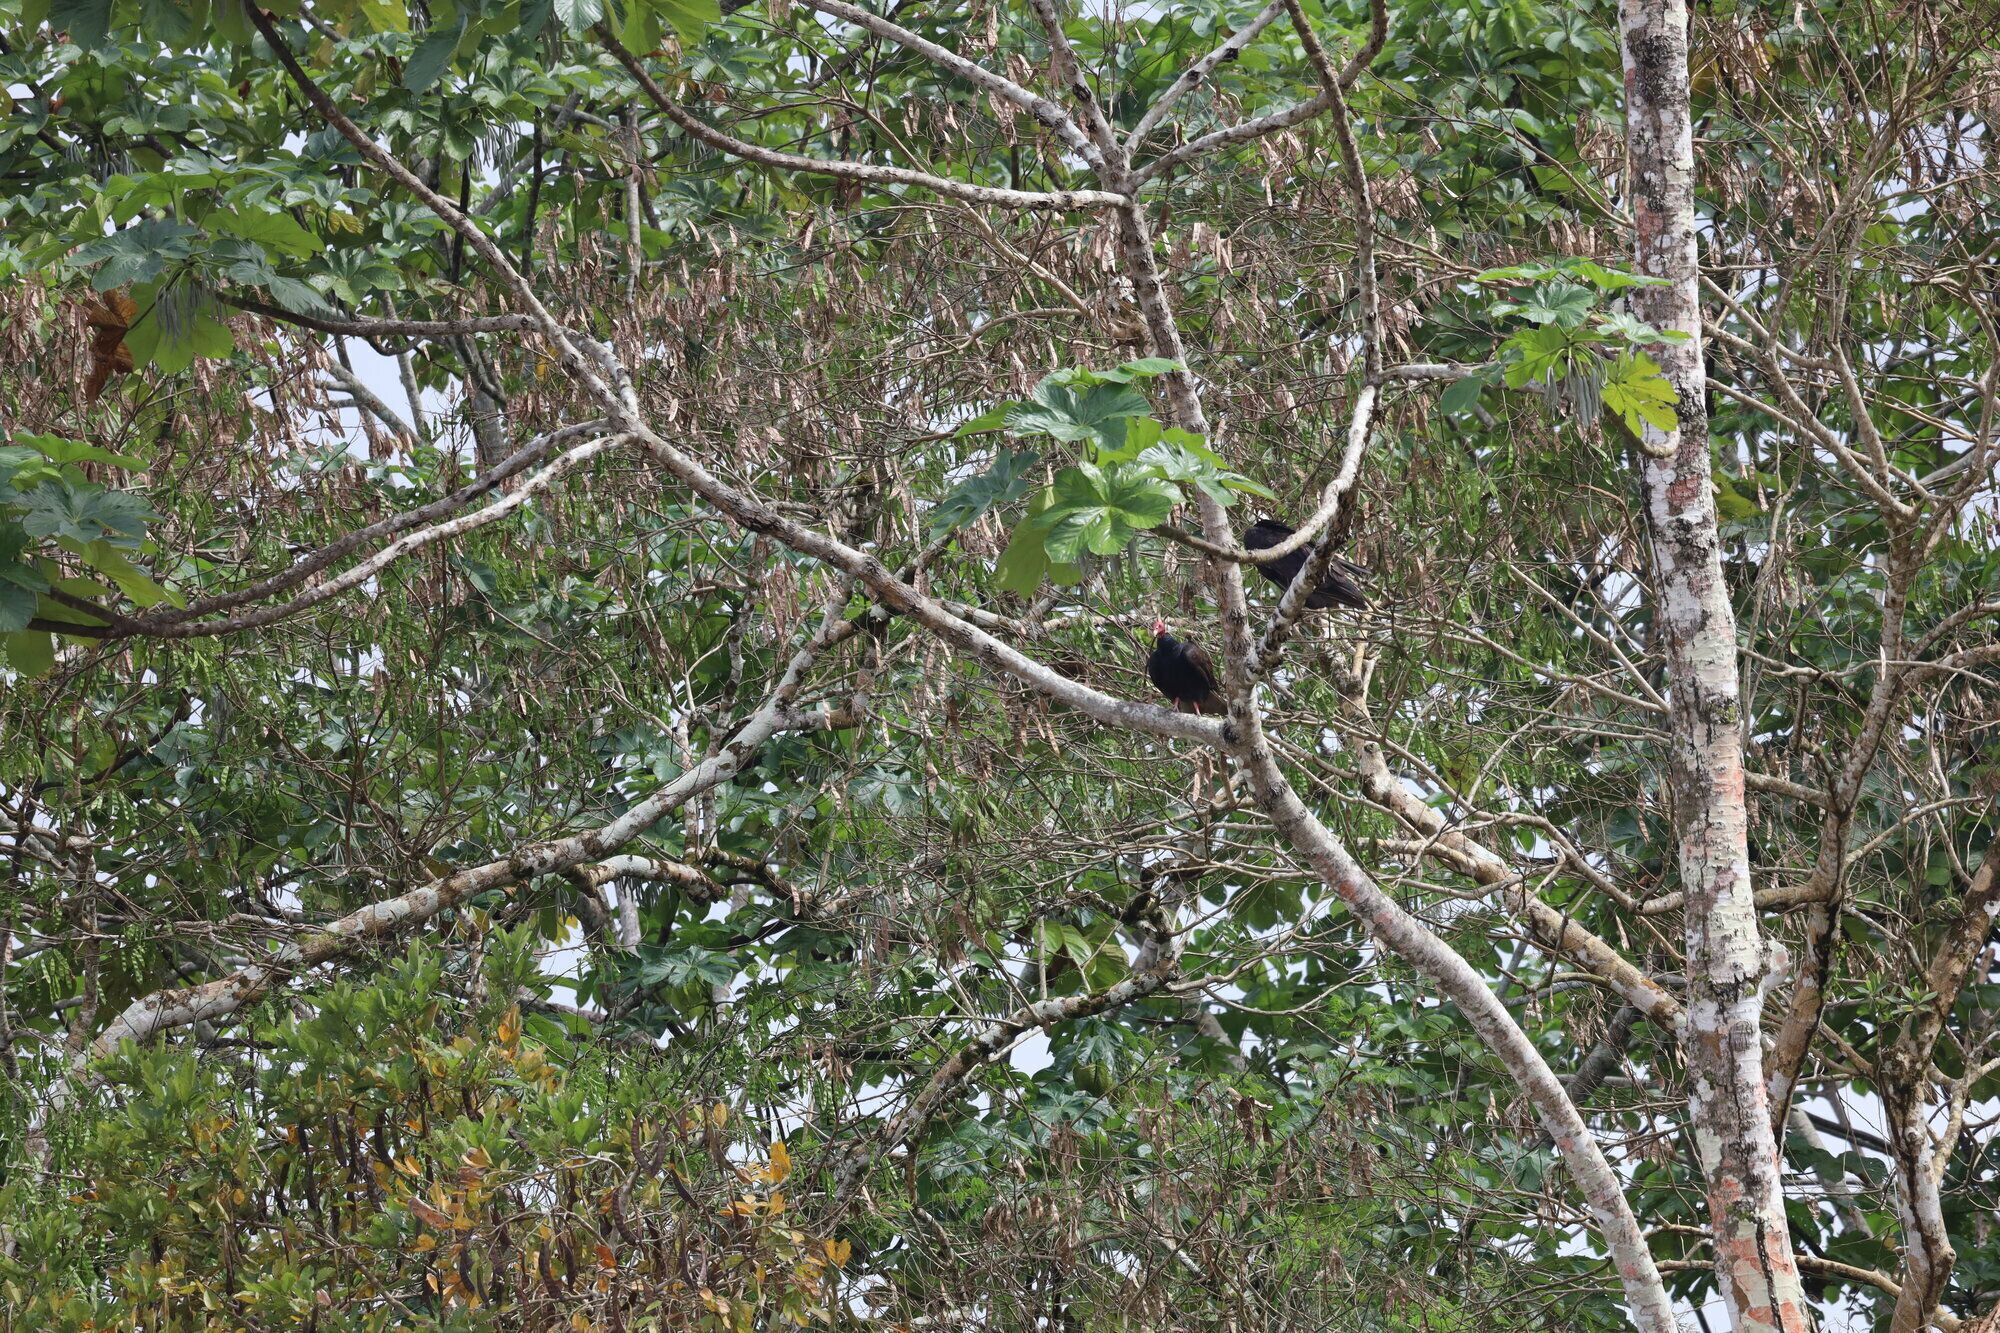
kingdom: Animalia
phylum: Chordata
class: Aves
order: Accipitriformes
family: Cathartidae
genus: Cathartes
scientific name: Cathartes aura
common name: Turkey vulture
